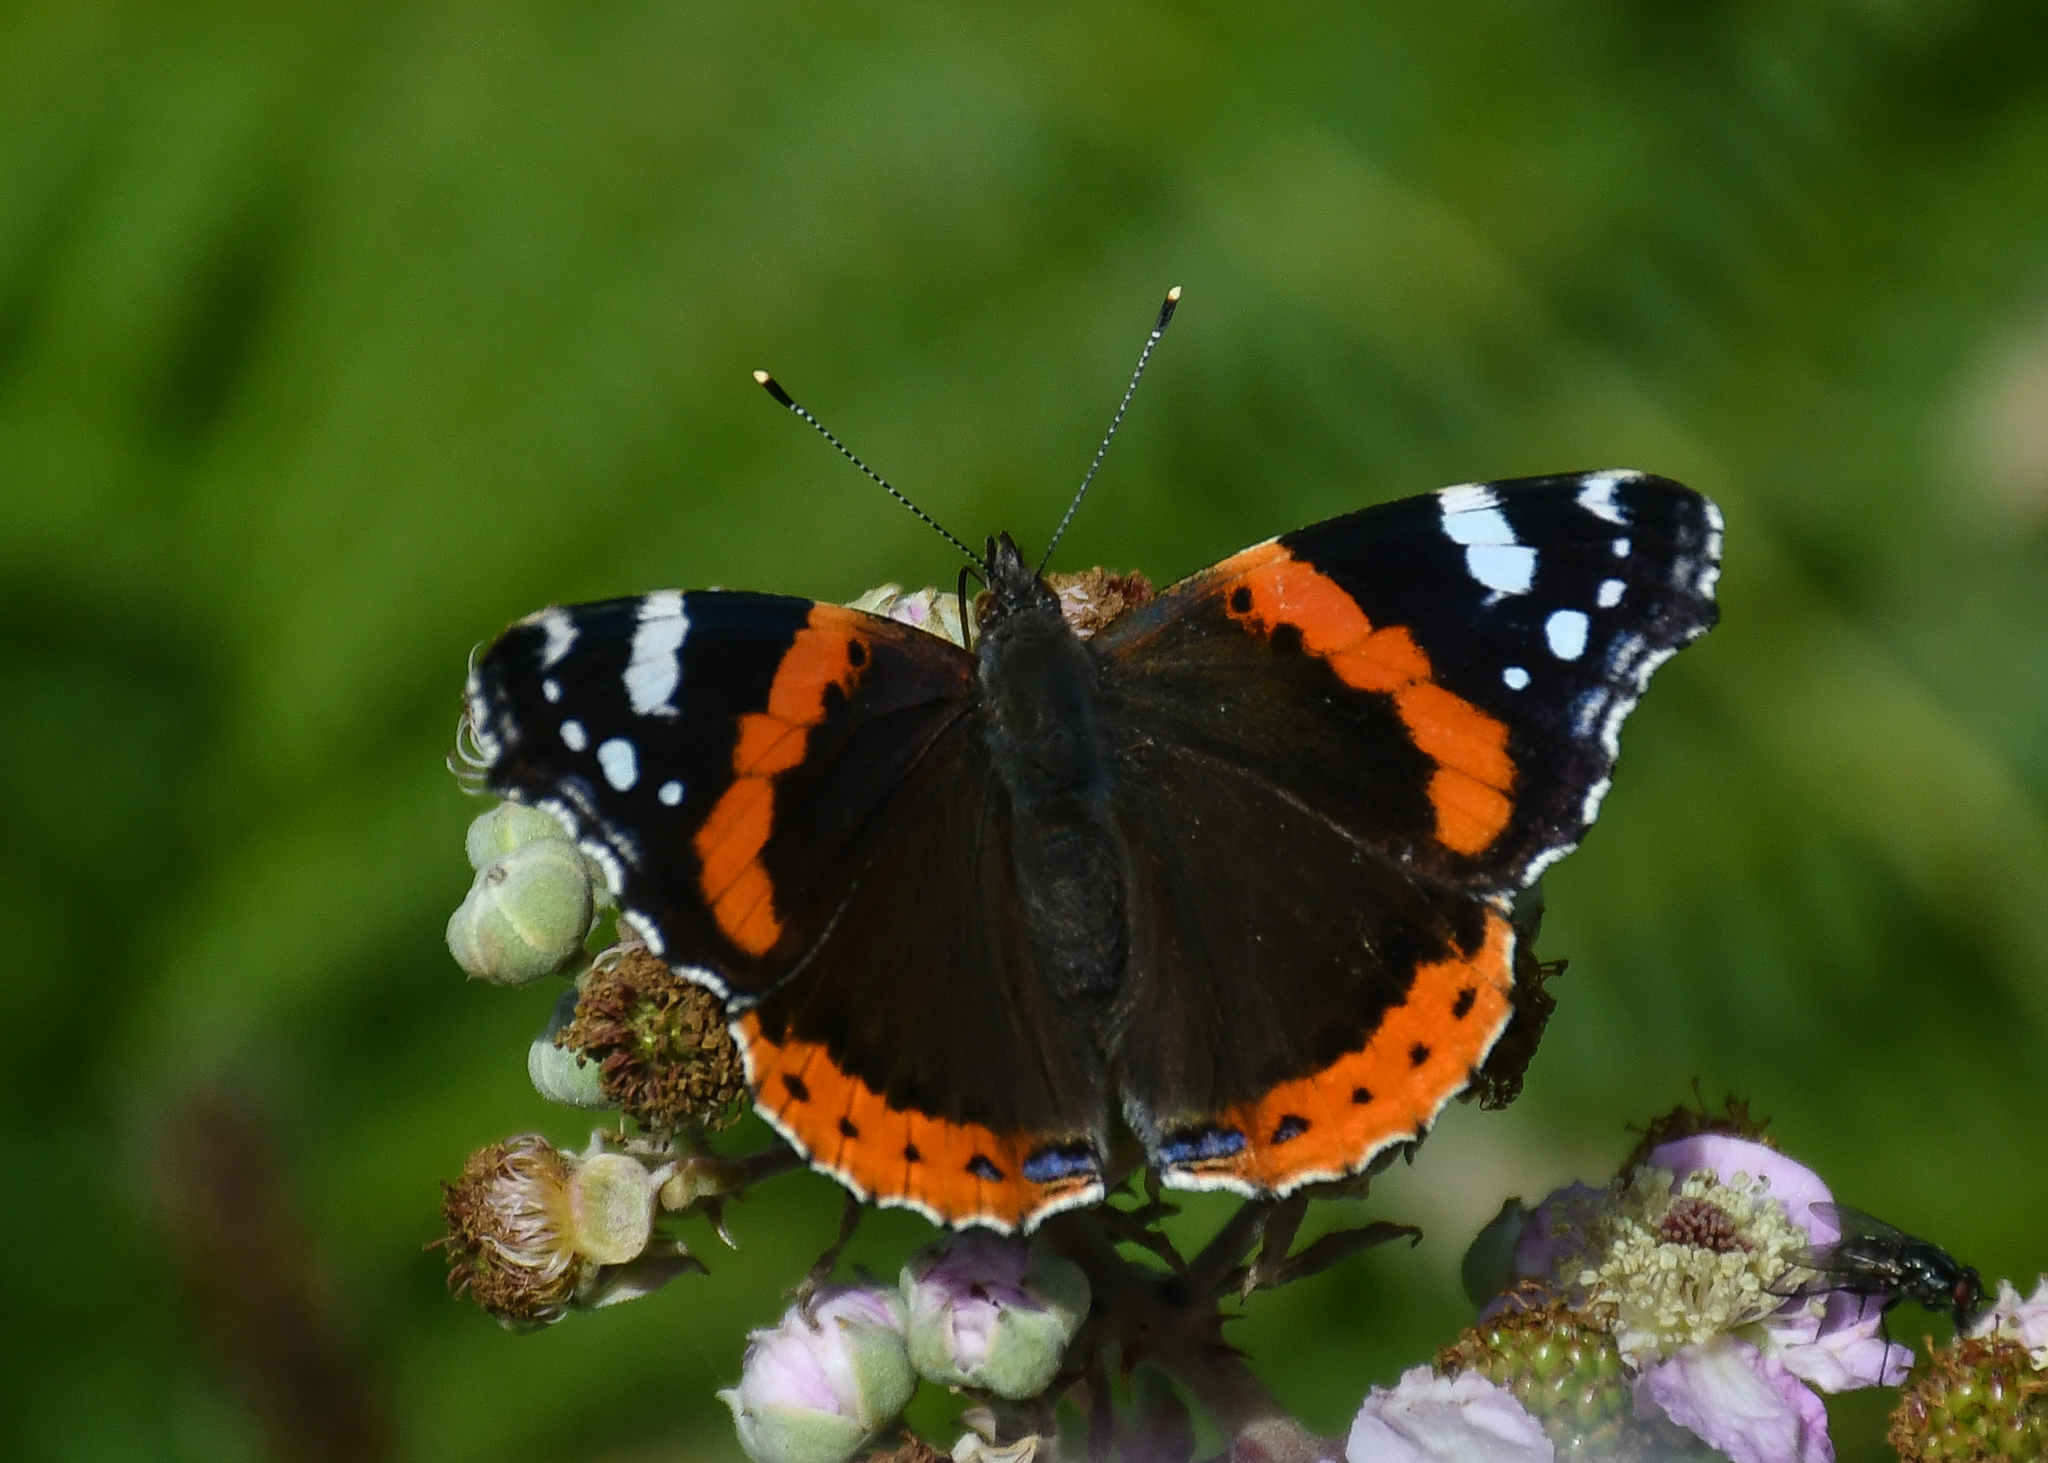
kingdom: Animalia
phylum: Arthropoda
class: Insecta
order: Lepidoptera
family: Nymphalidae
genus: Vanessa
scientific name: Vanessa atalanta
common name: Red admiral
